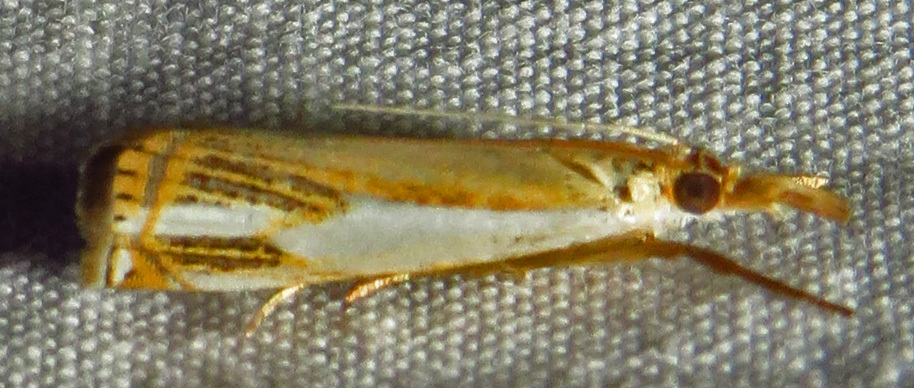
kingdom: Animalia
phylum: Arthropoda
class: Insecta
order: Lepidoptera
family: Crambidae
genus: Crambus
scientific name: Crambus agitatellus
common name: Double-banded grass-veneer
